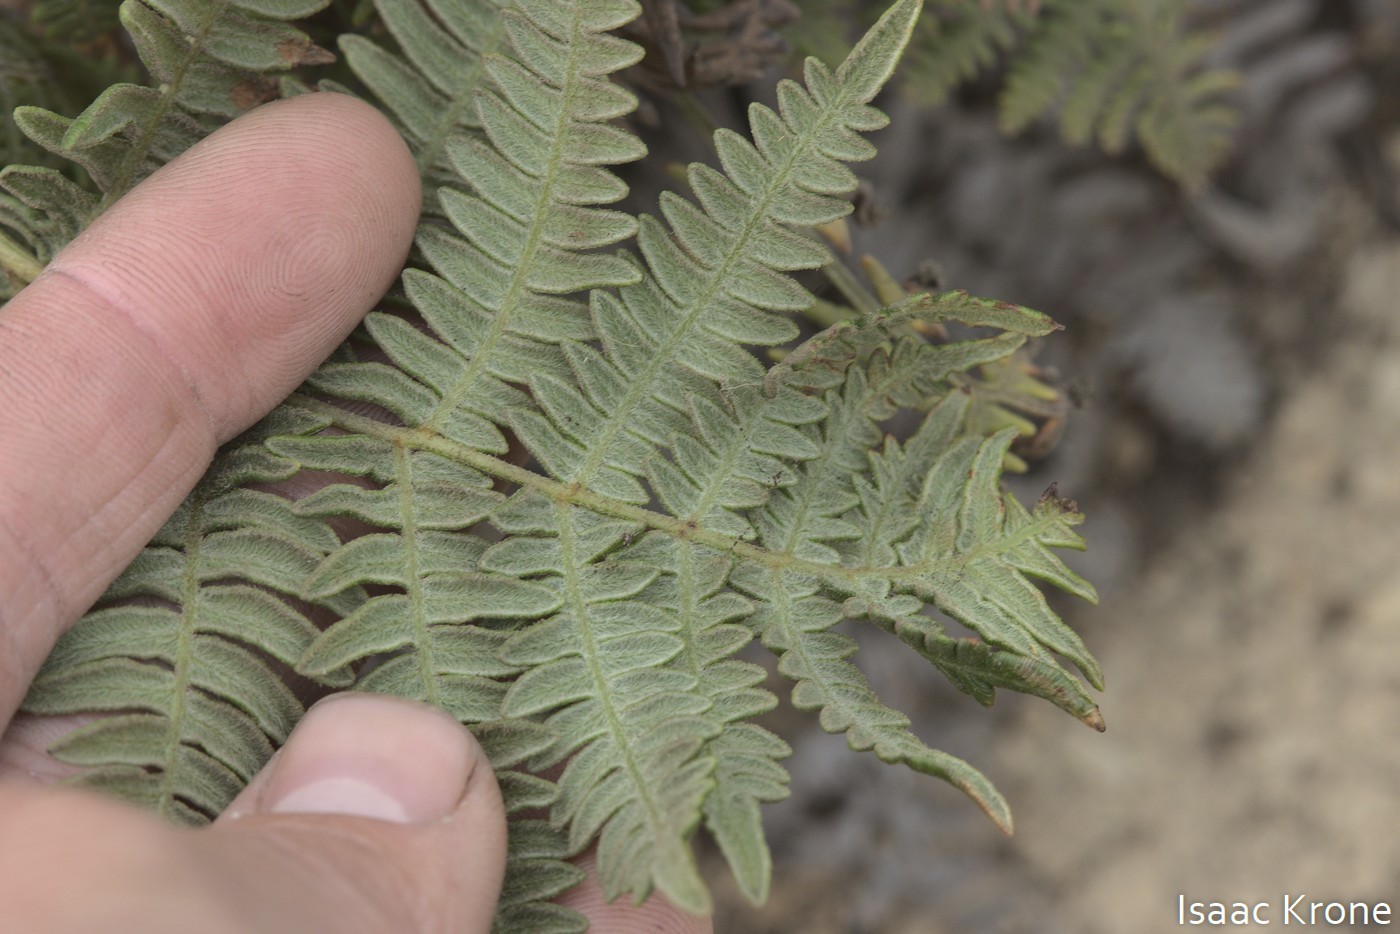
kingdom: Plantae
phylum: Tracheophyta
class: Polypodiopsida
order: Polypodiales
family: Dennstaedtiaceae
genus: Pteridium
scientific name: Pteridium aquilinum
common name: Bracken
